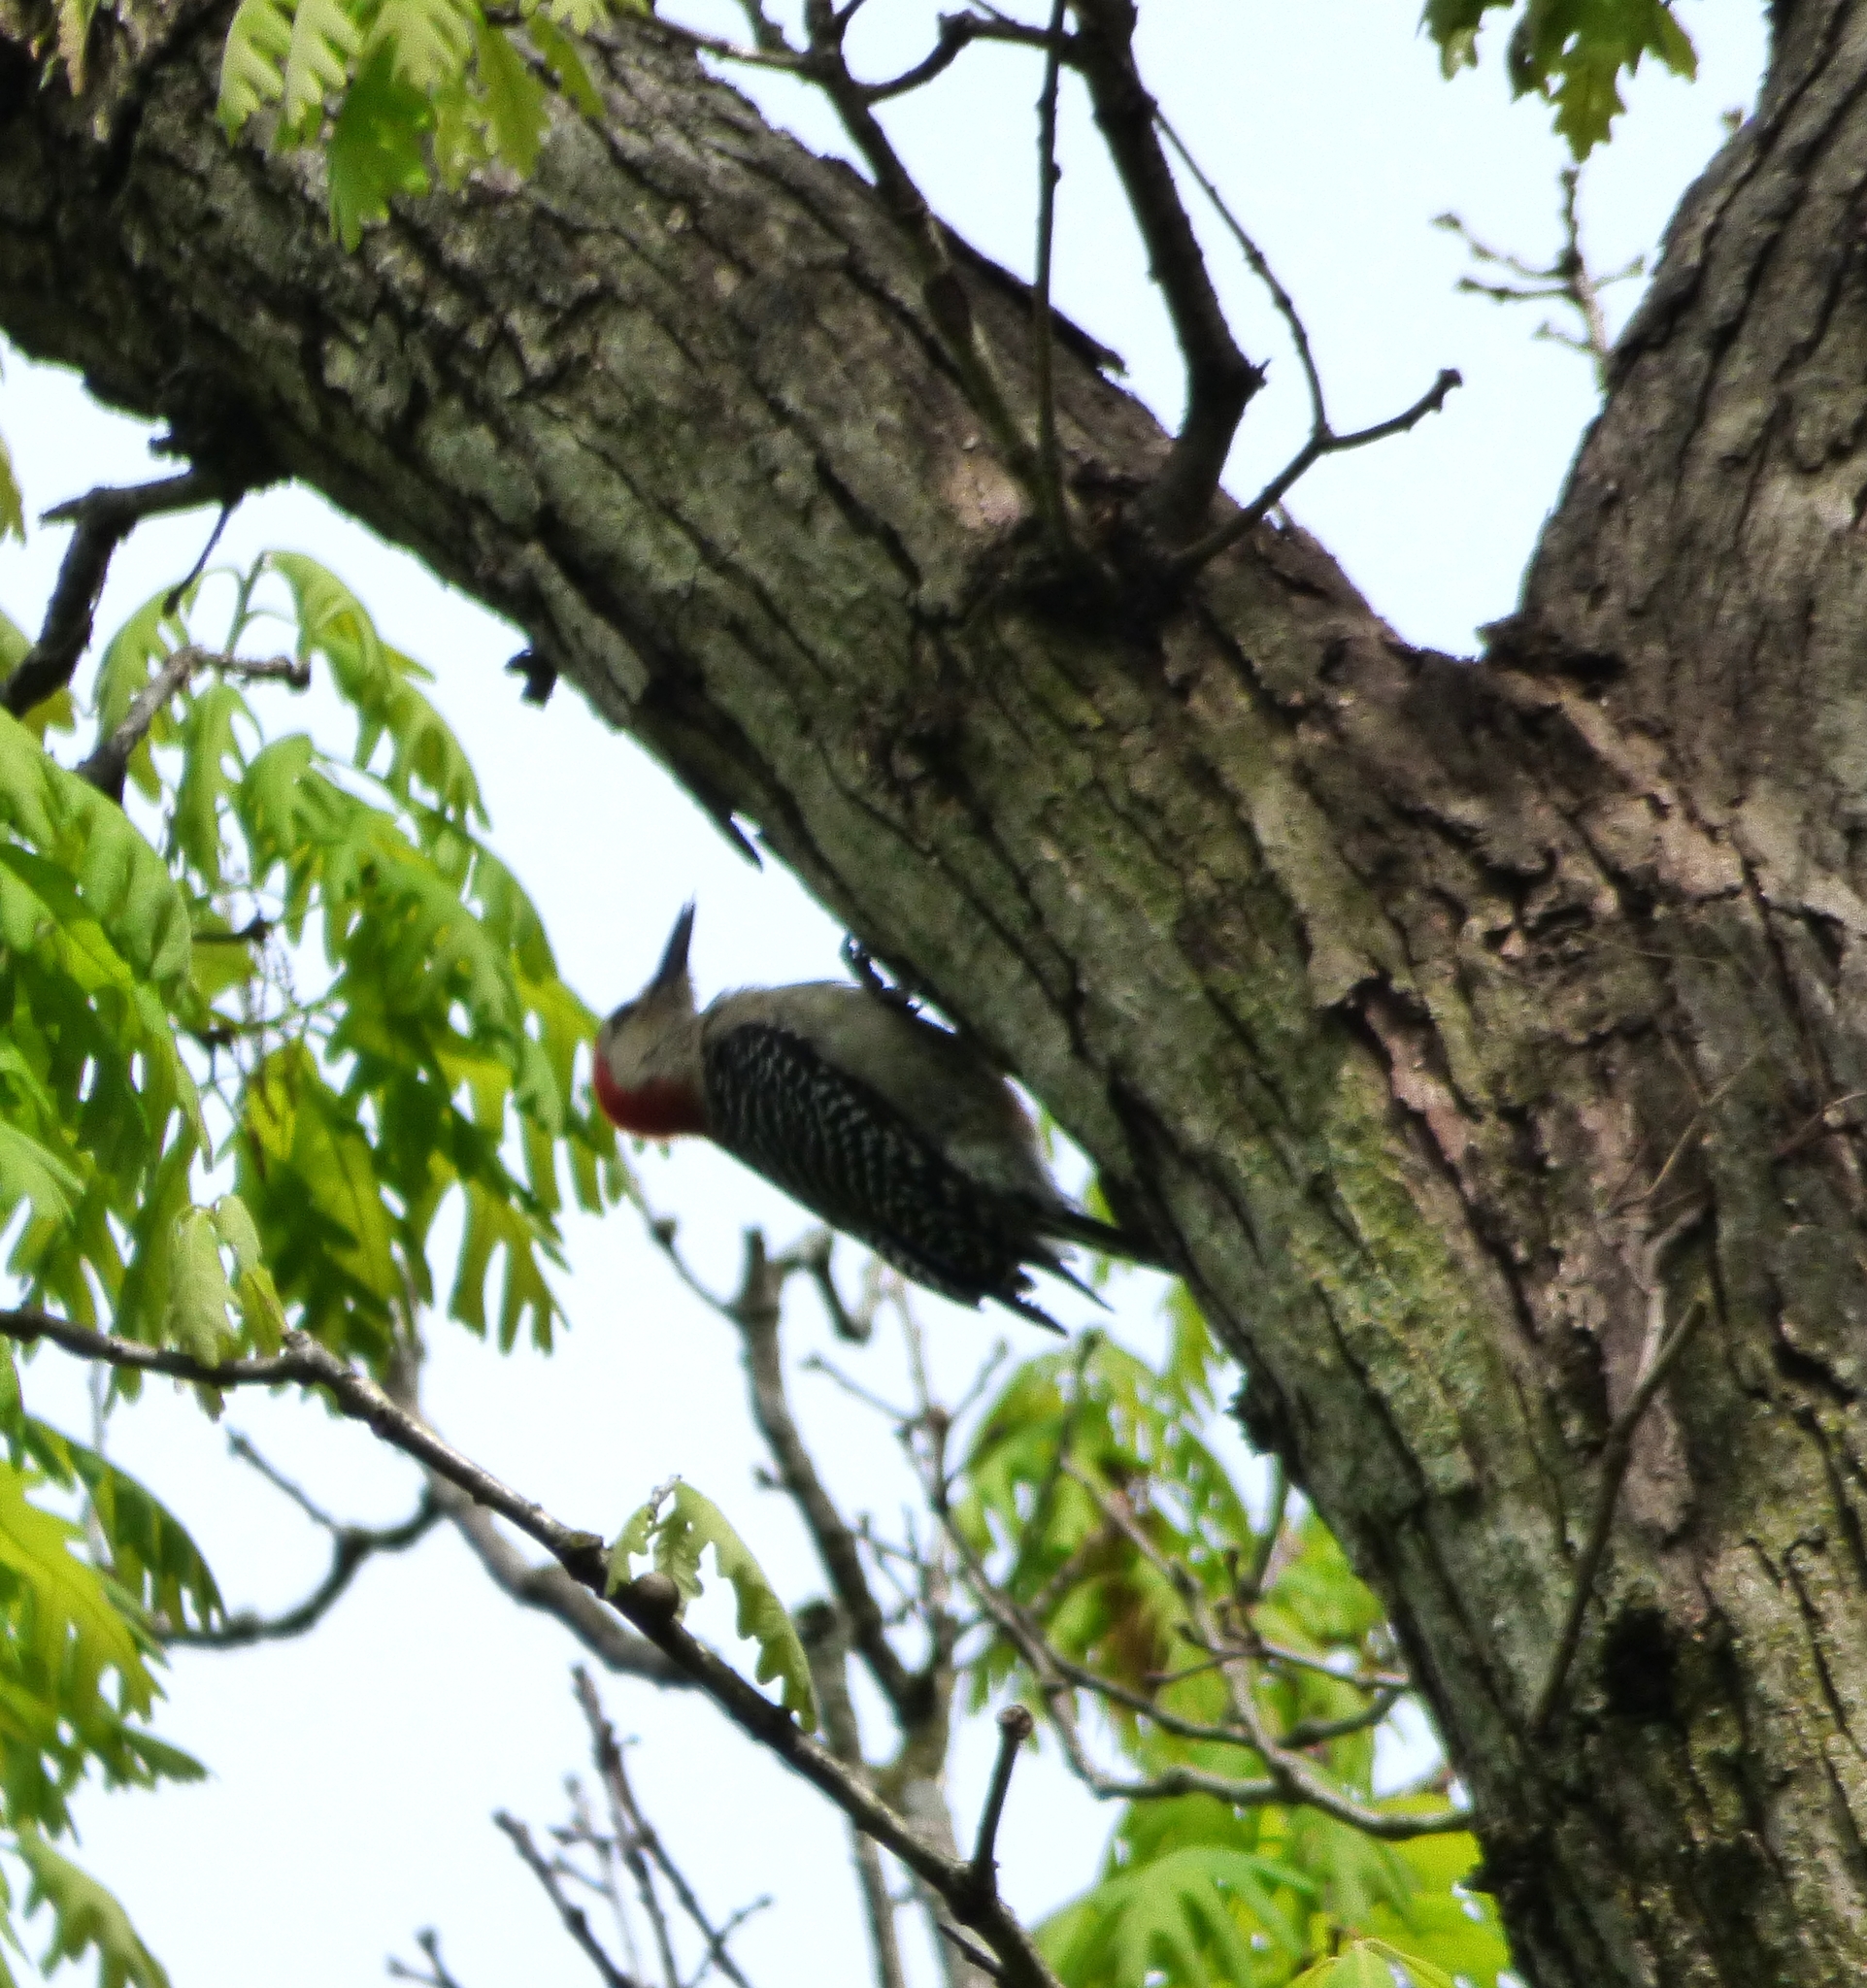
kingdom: Animalia
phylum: Chordata
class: Aves
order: Piciformes
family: Picidae
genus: Melanerpes
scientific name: Melanerpes carolinus
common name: Red-bellied woodpecker
